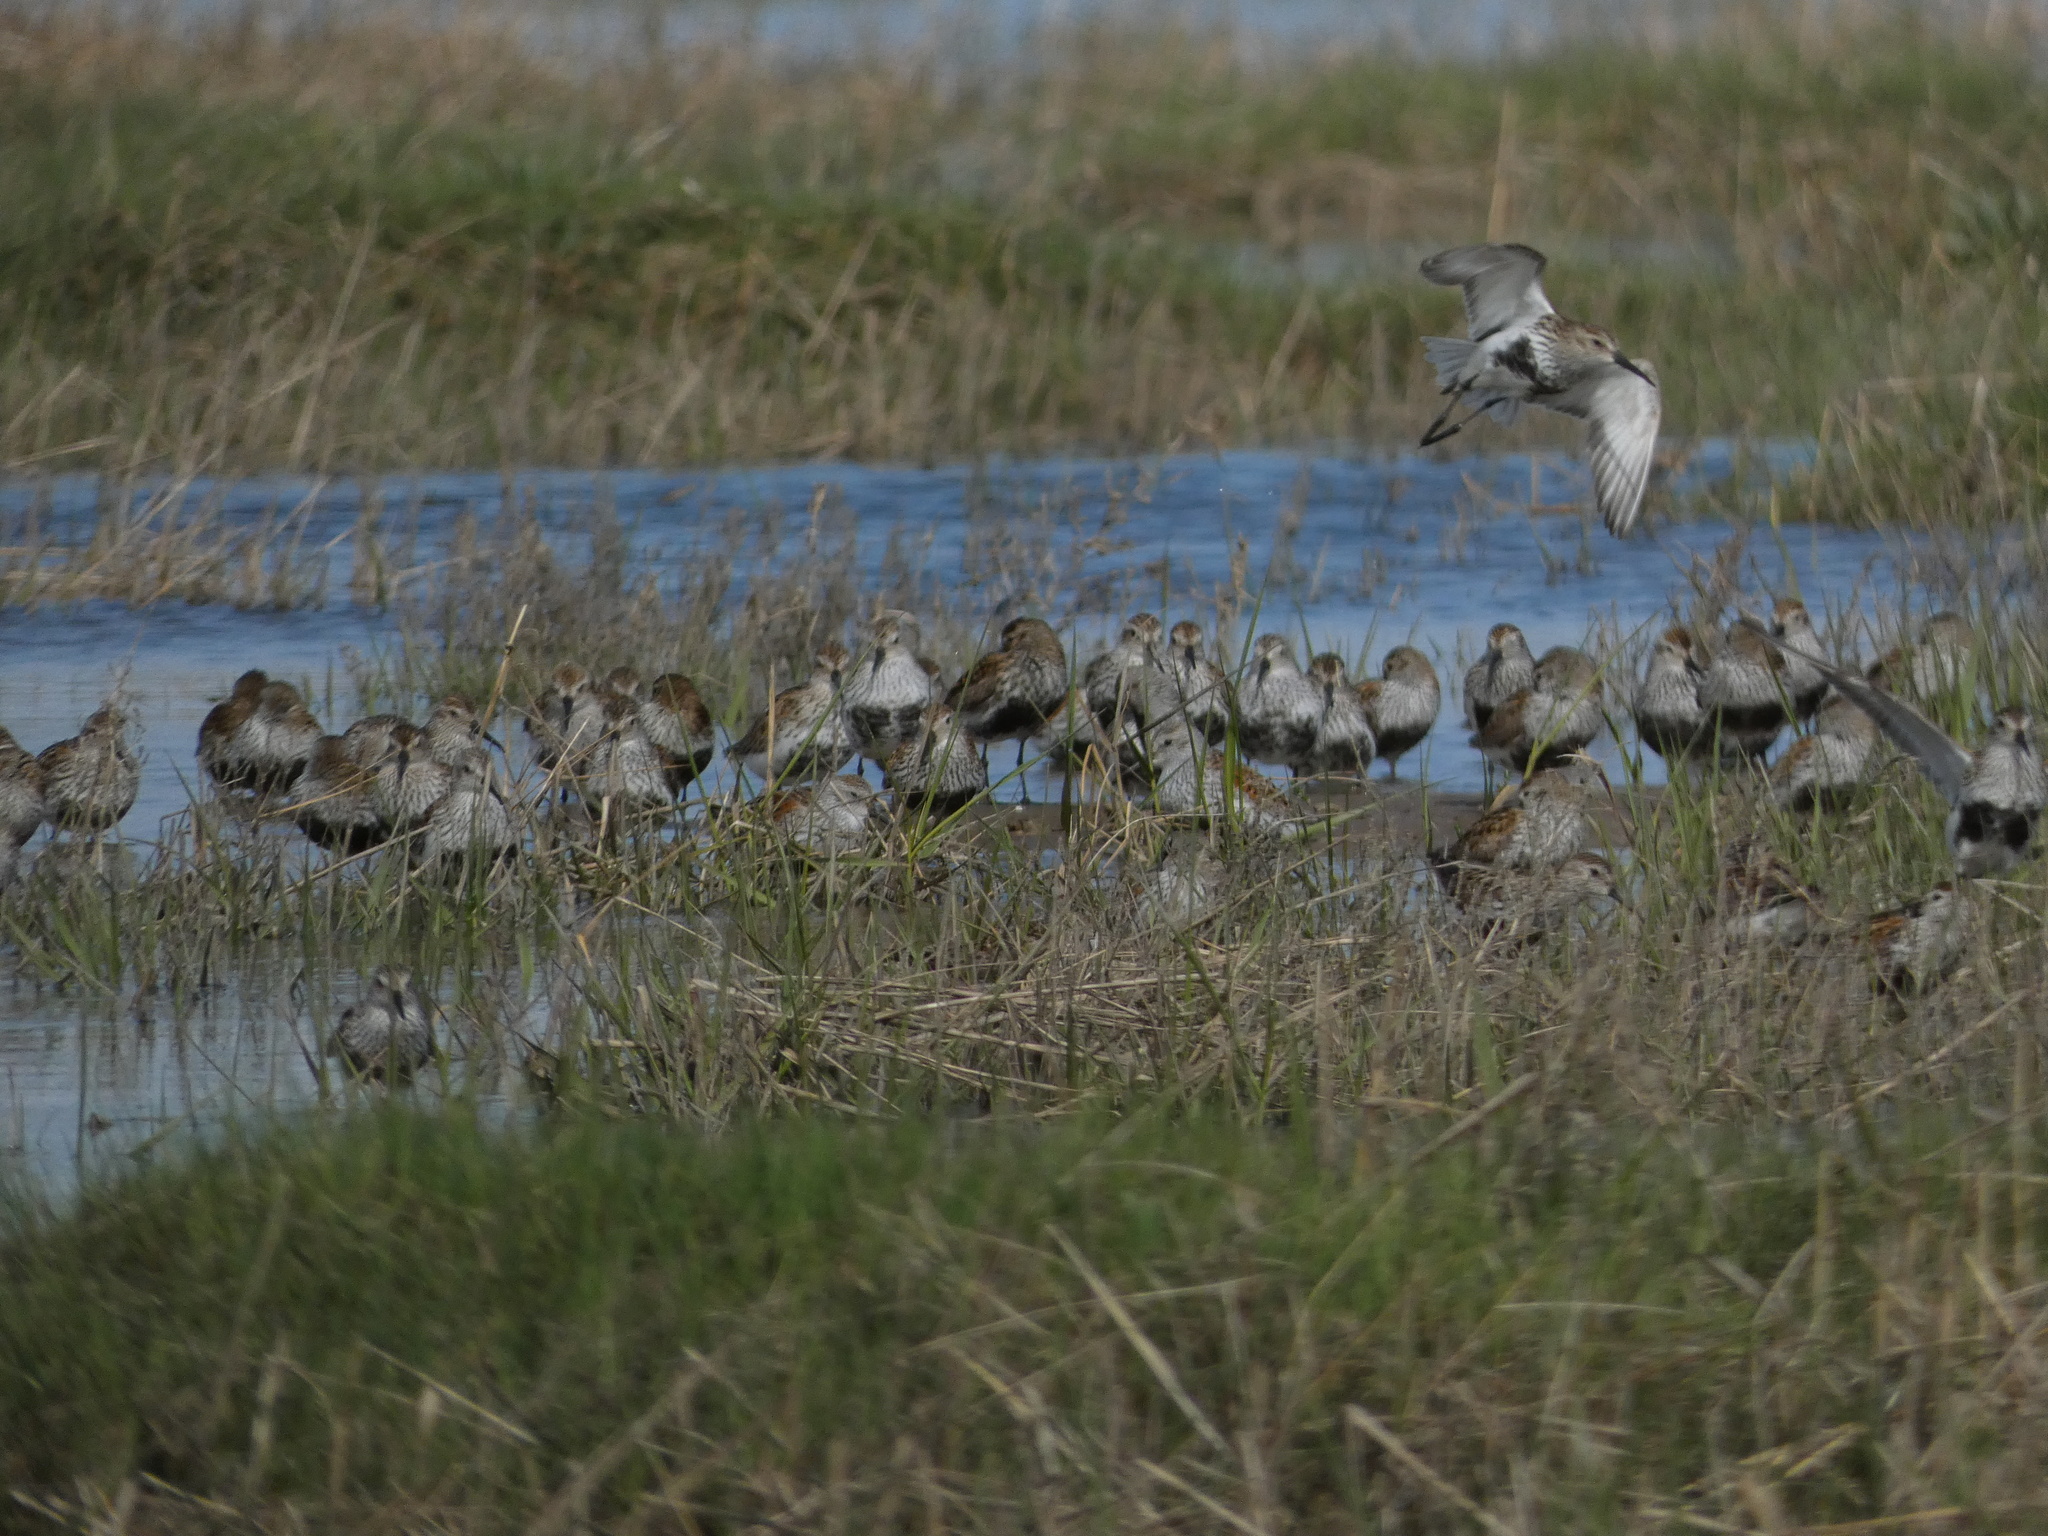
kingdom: Animalia
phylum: Chordata
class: Aves
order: Charadriiformes
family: Scolopacidae
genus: Calidris
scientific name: Calidris alpina
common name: Dunlin
